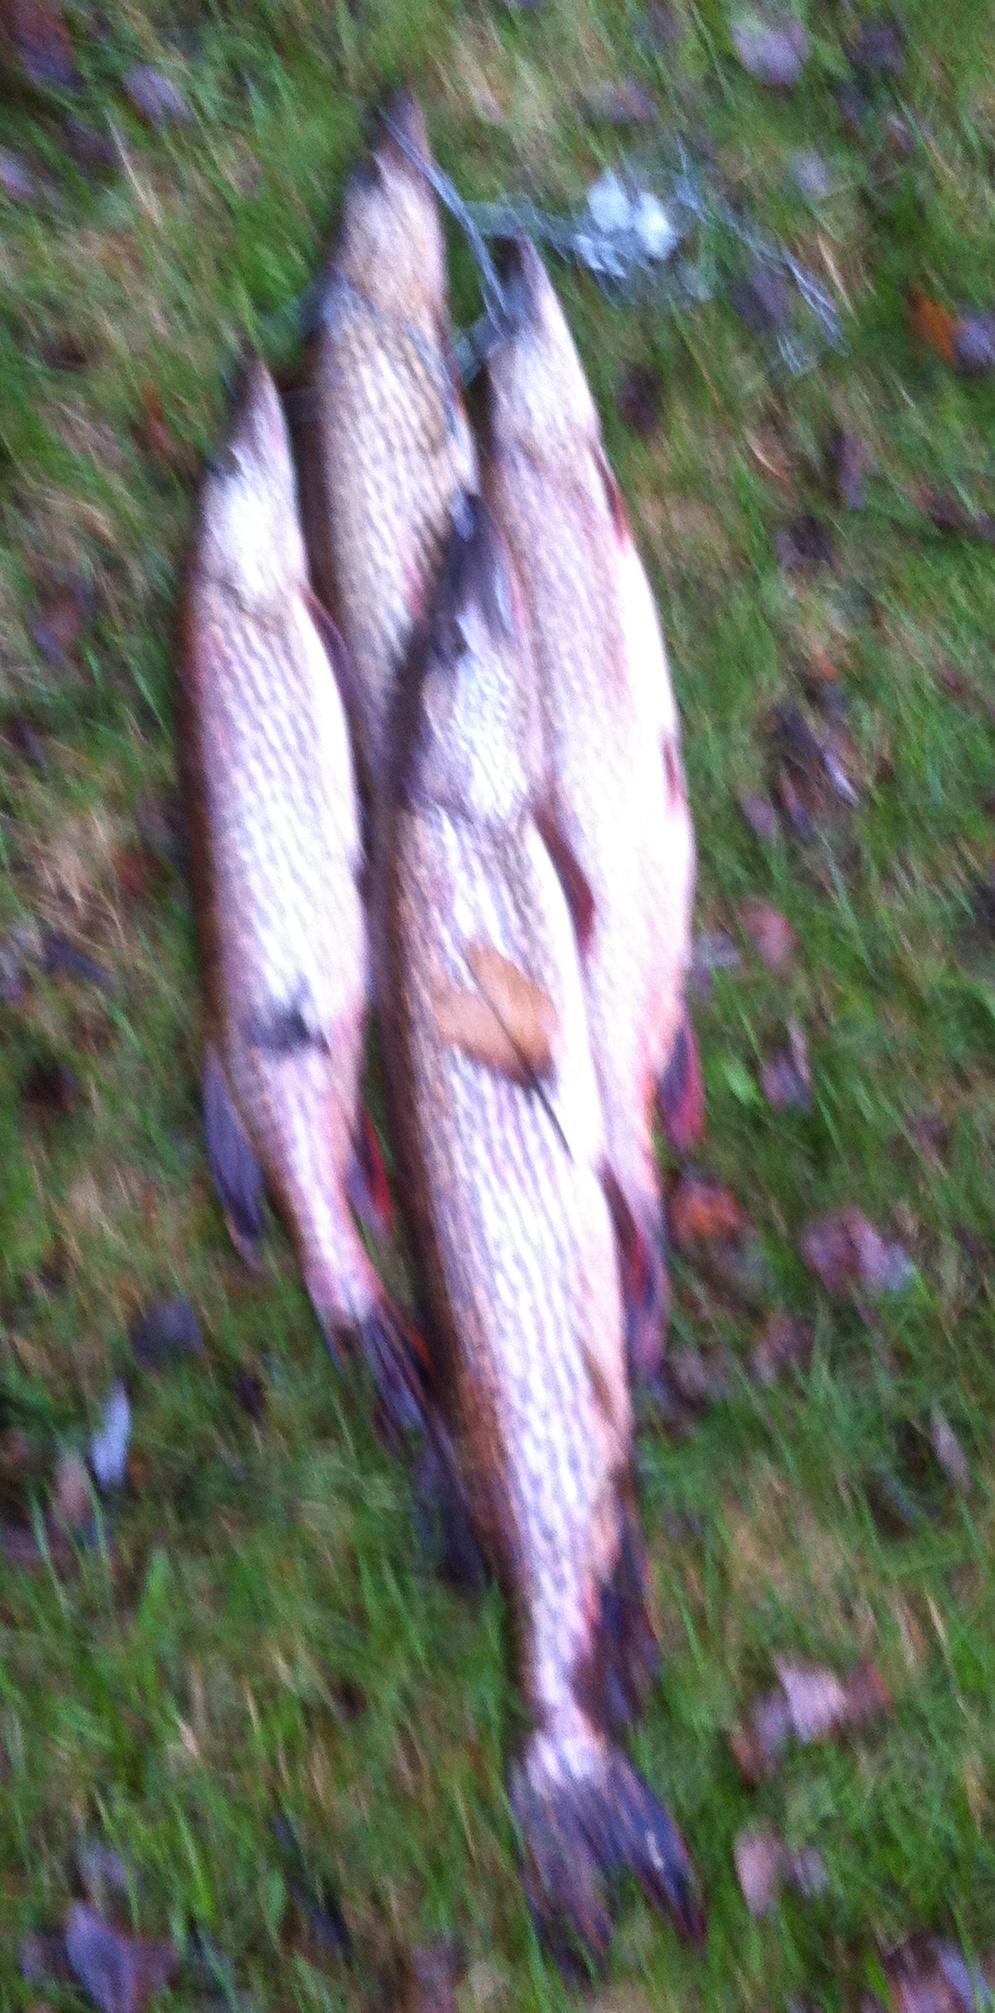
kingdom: Animalia
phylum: Chordata
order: Esociformes
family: Esocidae
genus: Esox
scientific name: Esox lucius
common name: Northern pike
